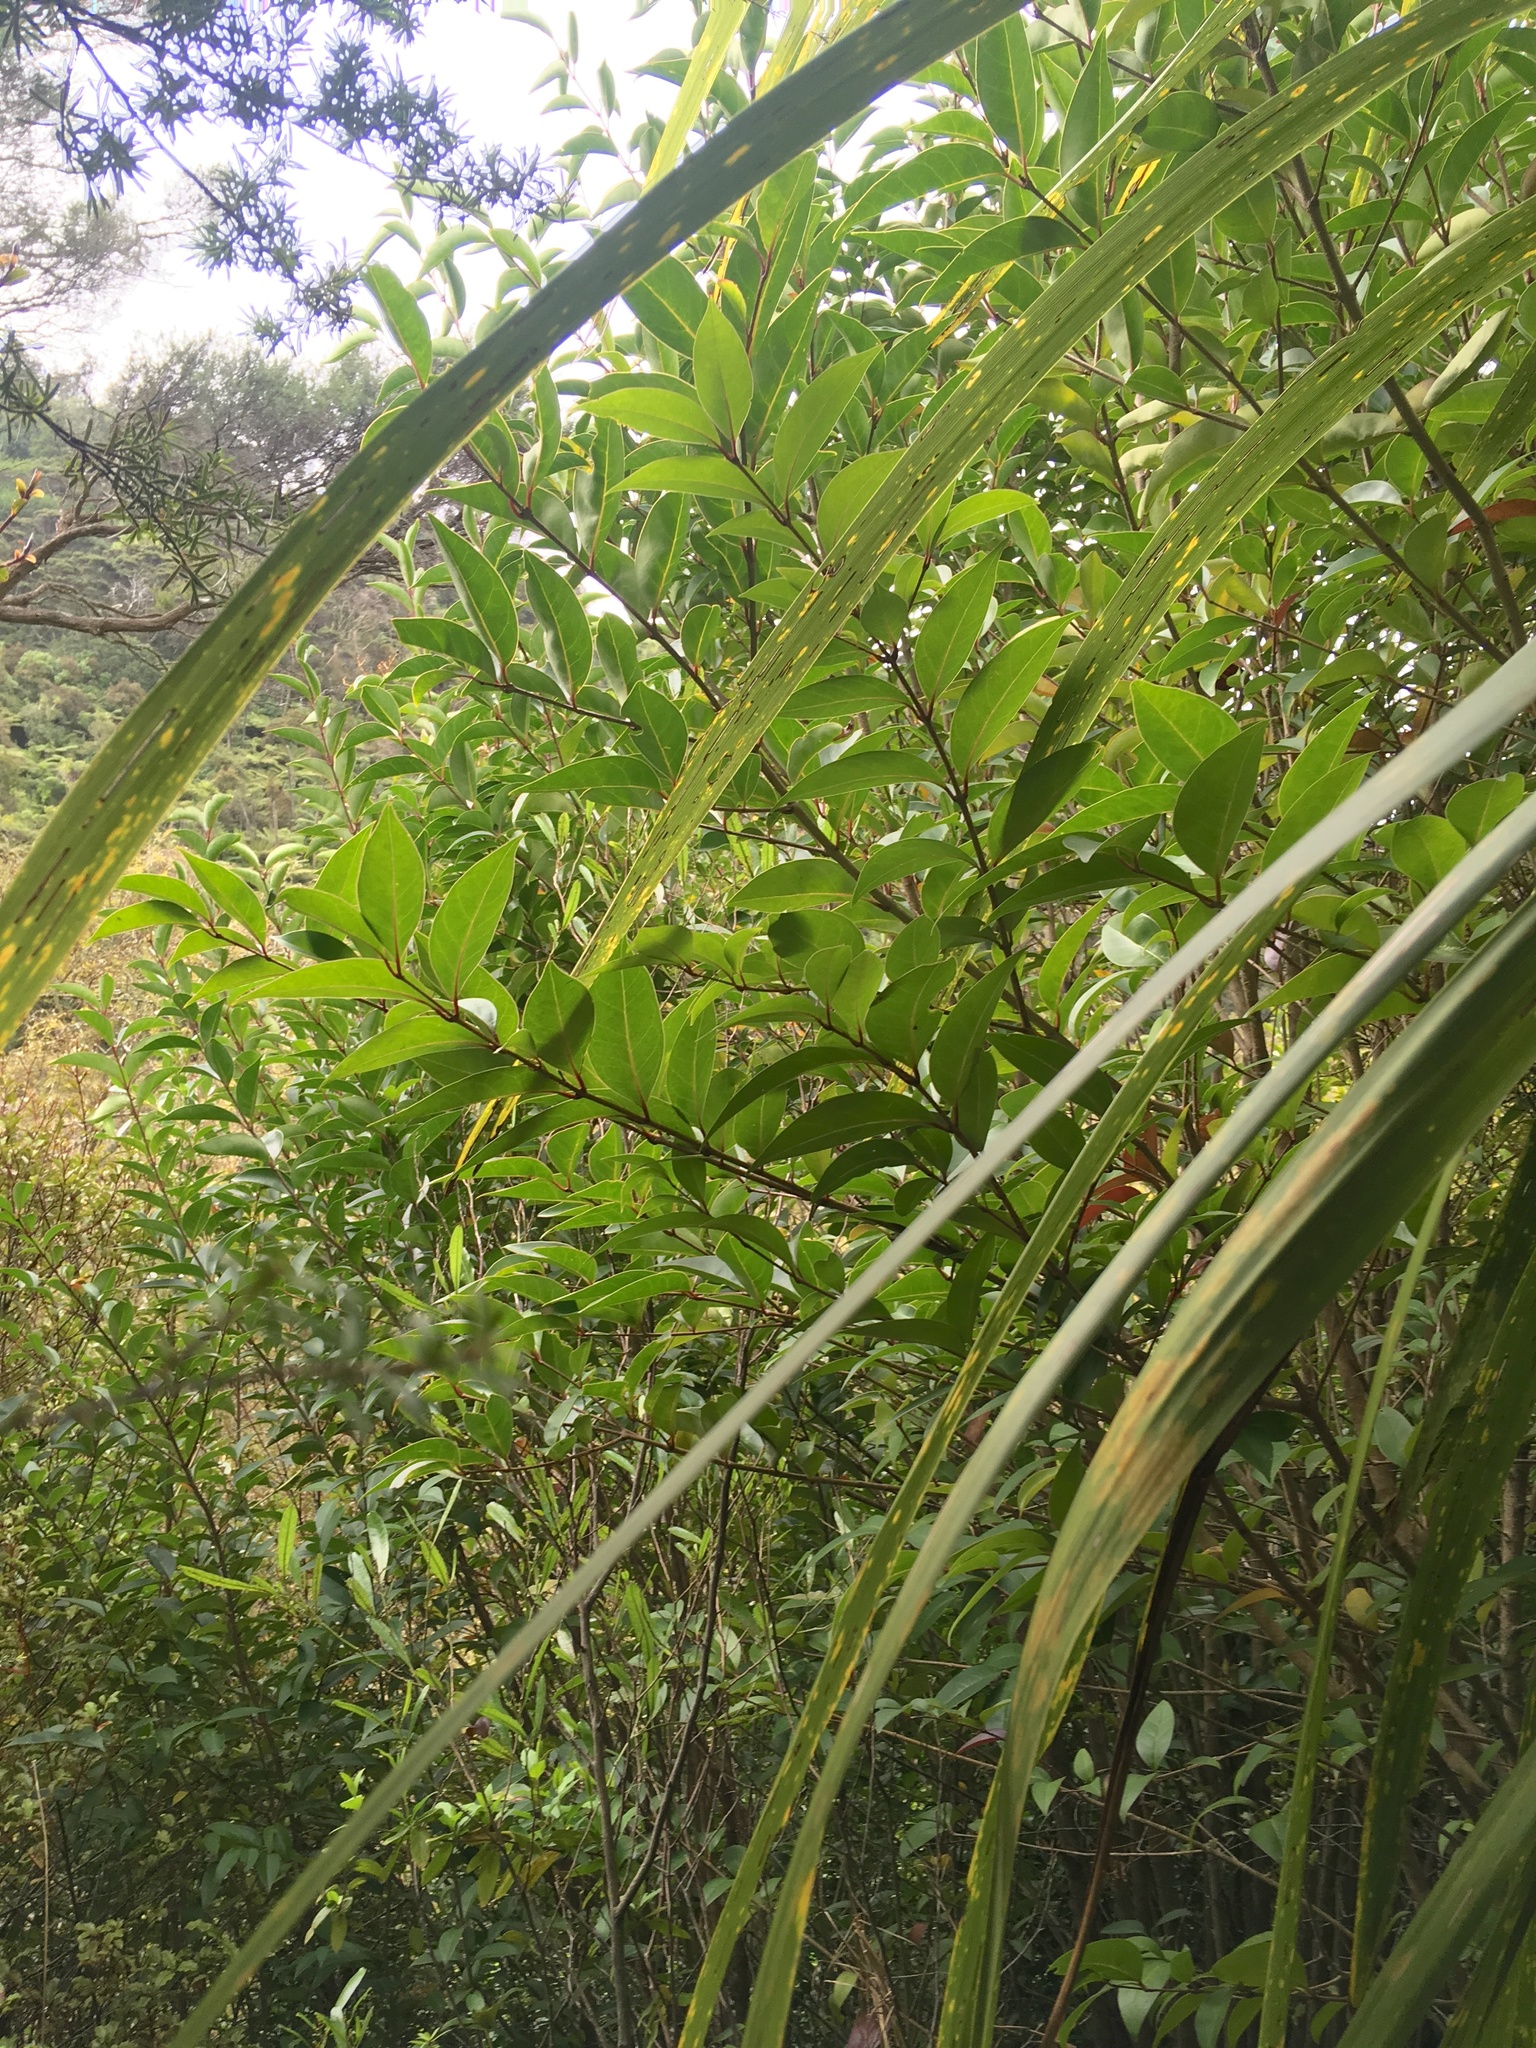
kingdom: Plantae
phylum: Tracheophyta
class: Magnoliopsida
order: Lamiales
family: Oleaceae
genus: Ligustrum
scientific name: Ligustrum lucidum
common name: Glossy privet
